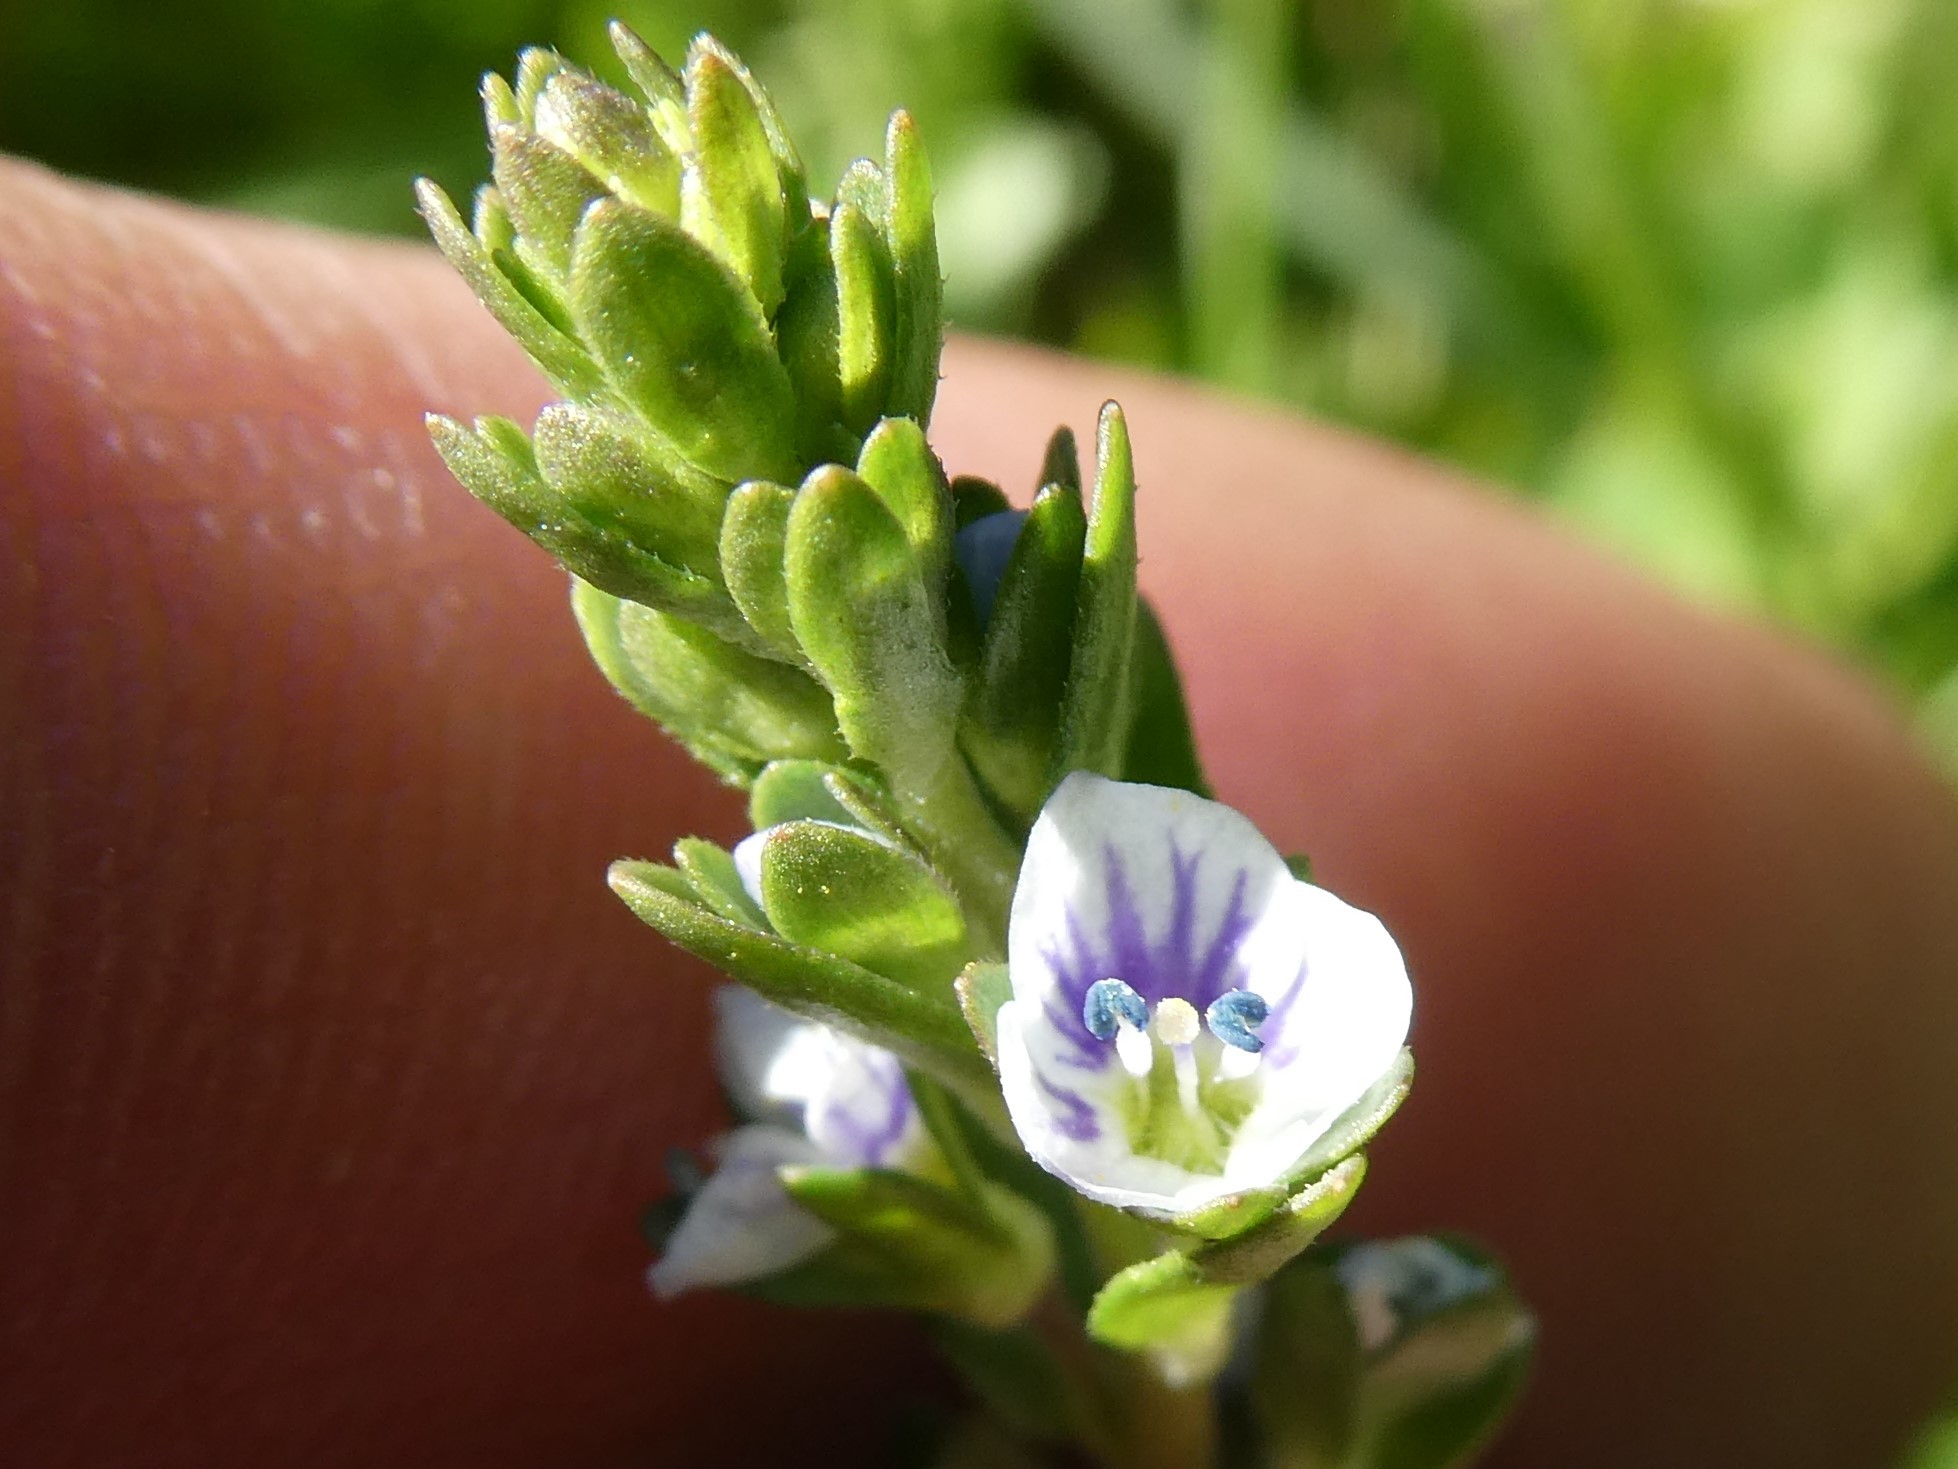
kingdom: Plantae
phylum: Tracheophyta
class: Magnoliopsida
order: Lamiales
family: Plantaginaceae
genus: Veronica
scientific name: Veronica serpyllifolia
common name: Thyme-leaved speedwell
